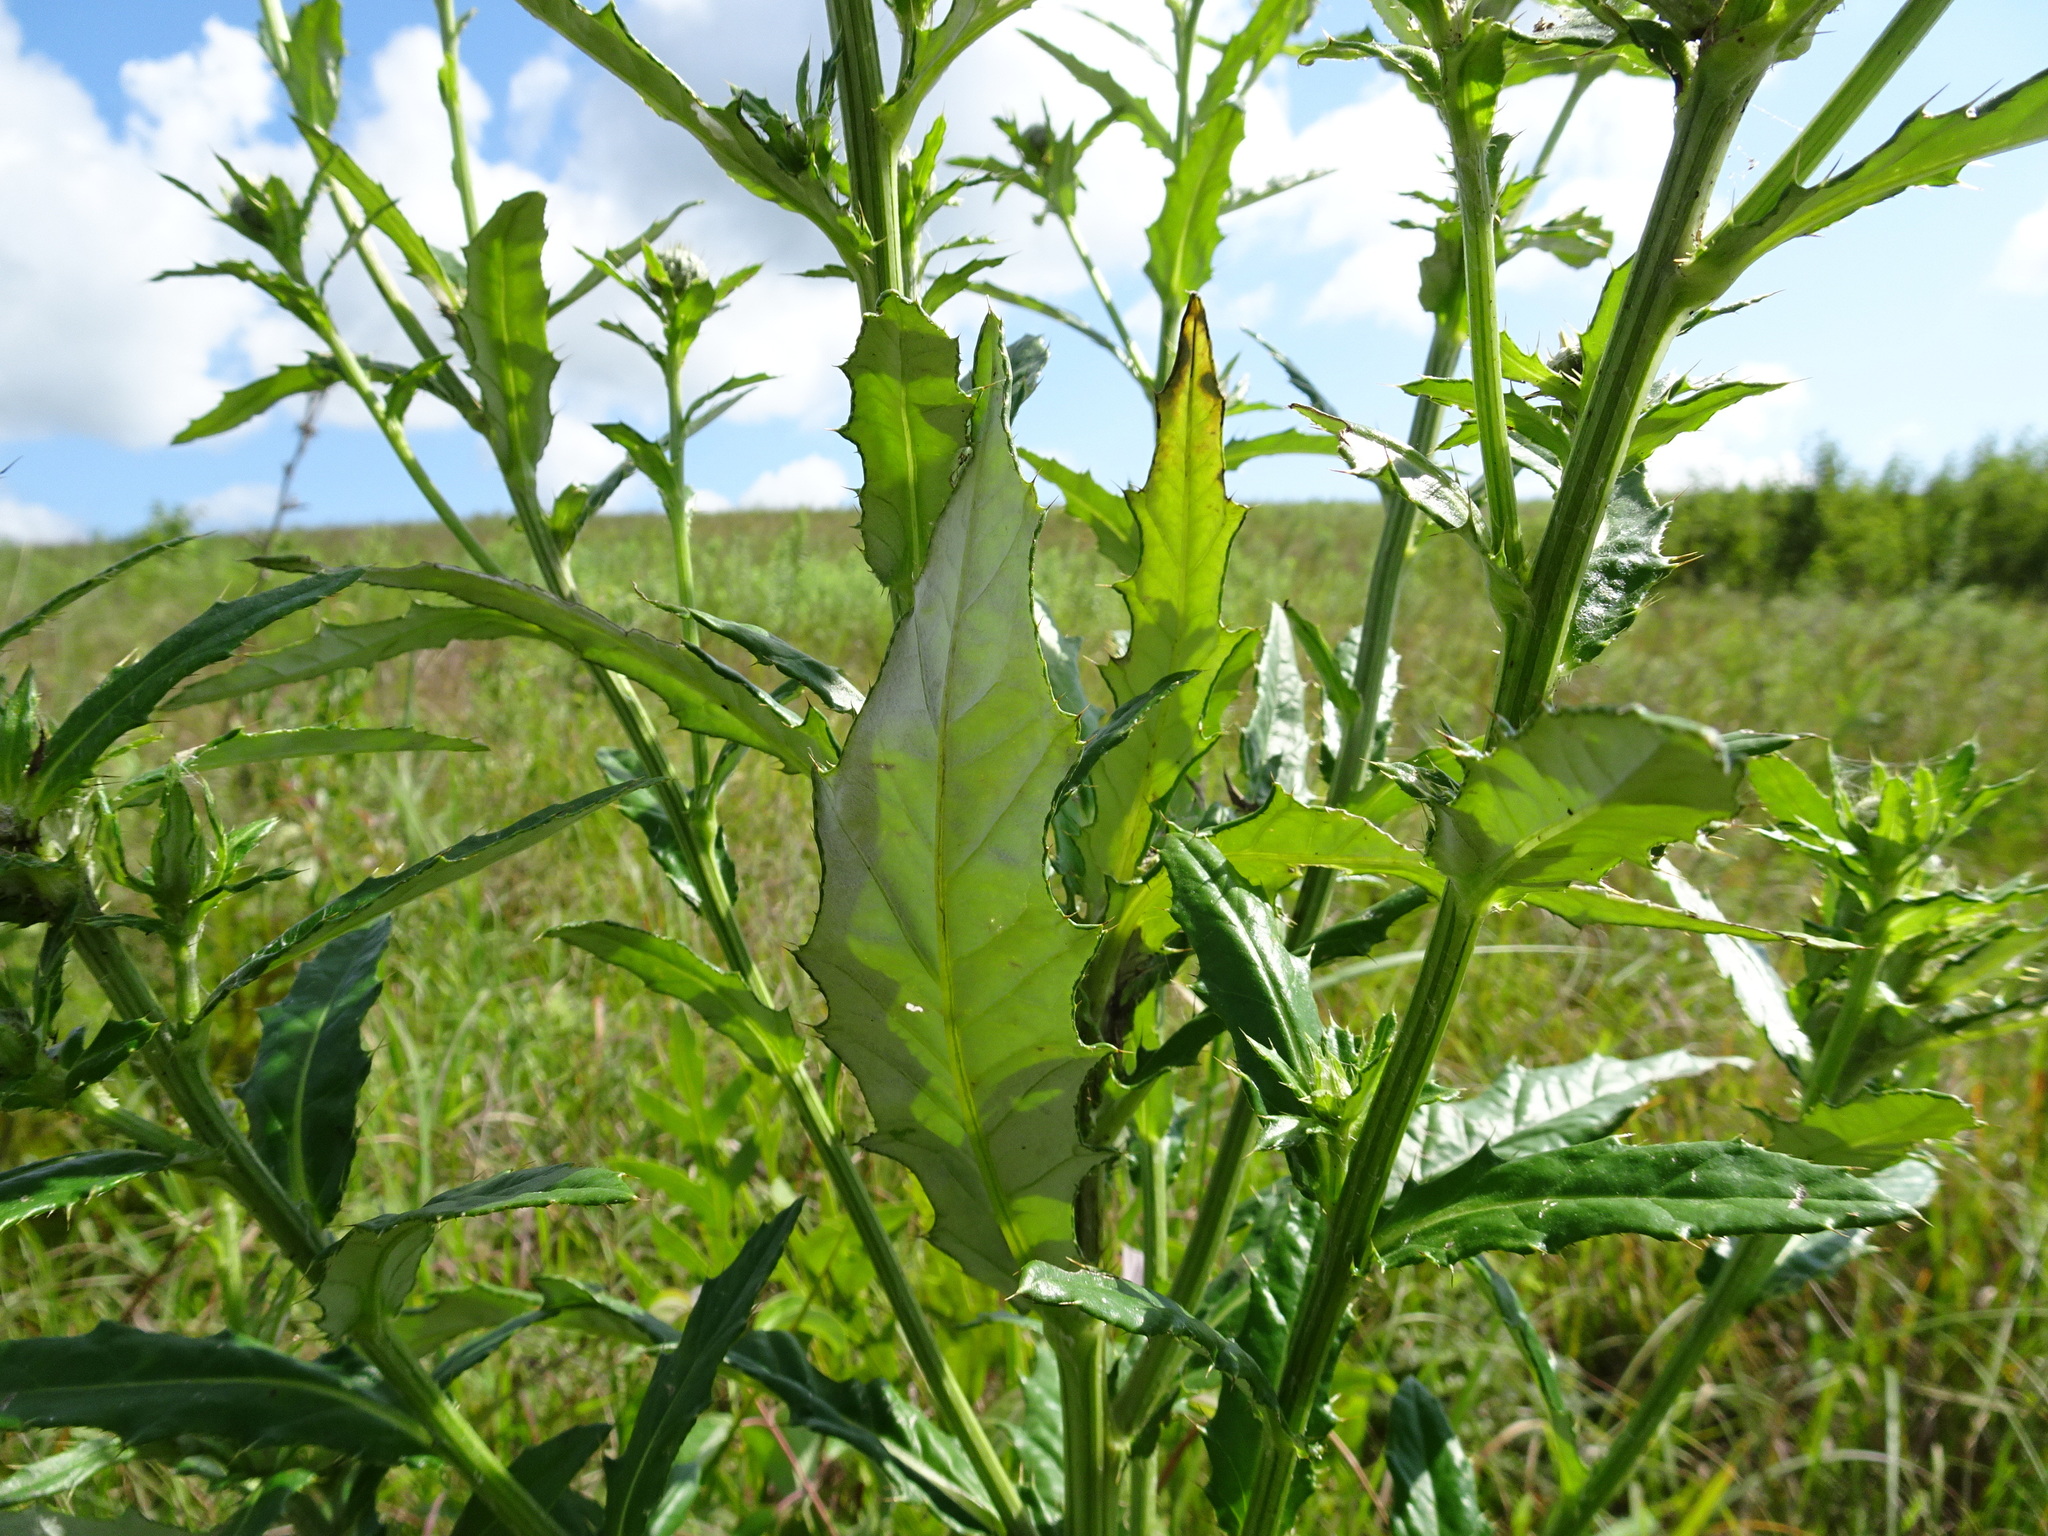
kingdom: Plantae
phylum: Tracheophyta
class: Magnoliopsida
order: Asterales
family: Asteraceae
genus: Cirsium
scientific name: Cirsium altissimum
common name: Roadside thistle
